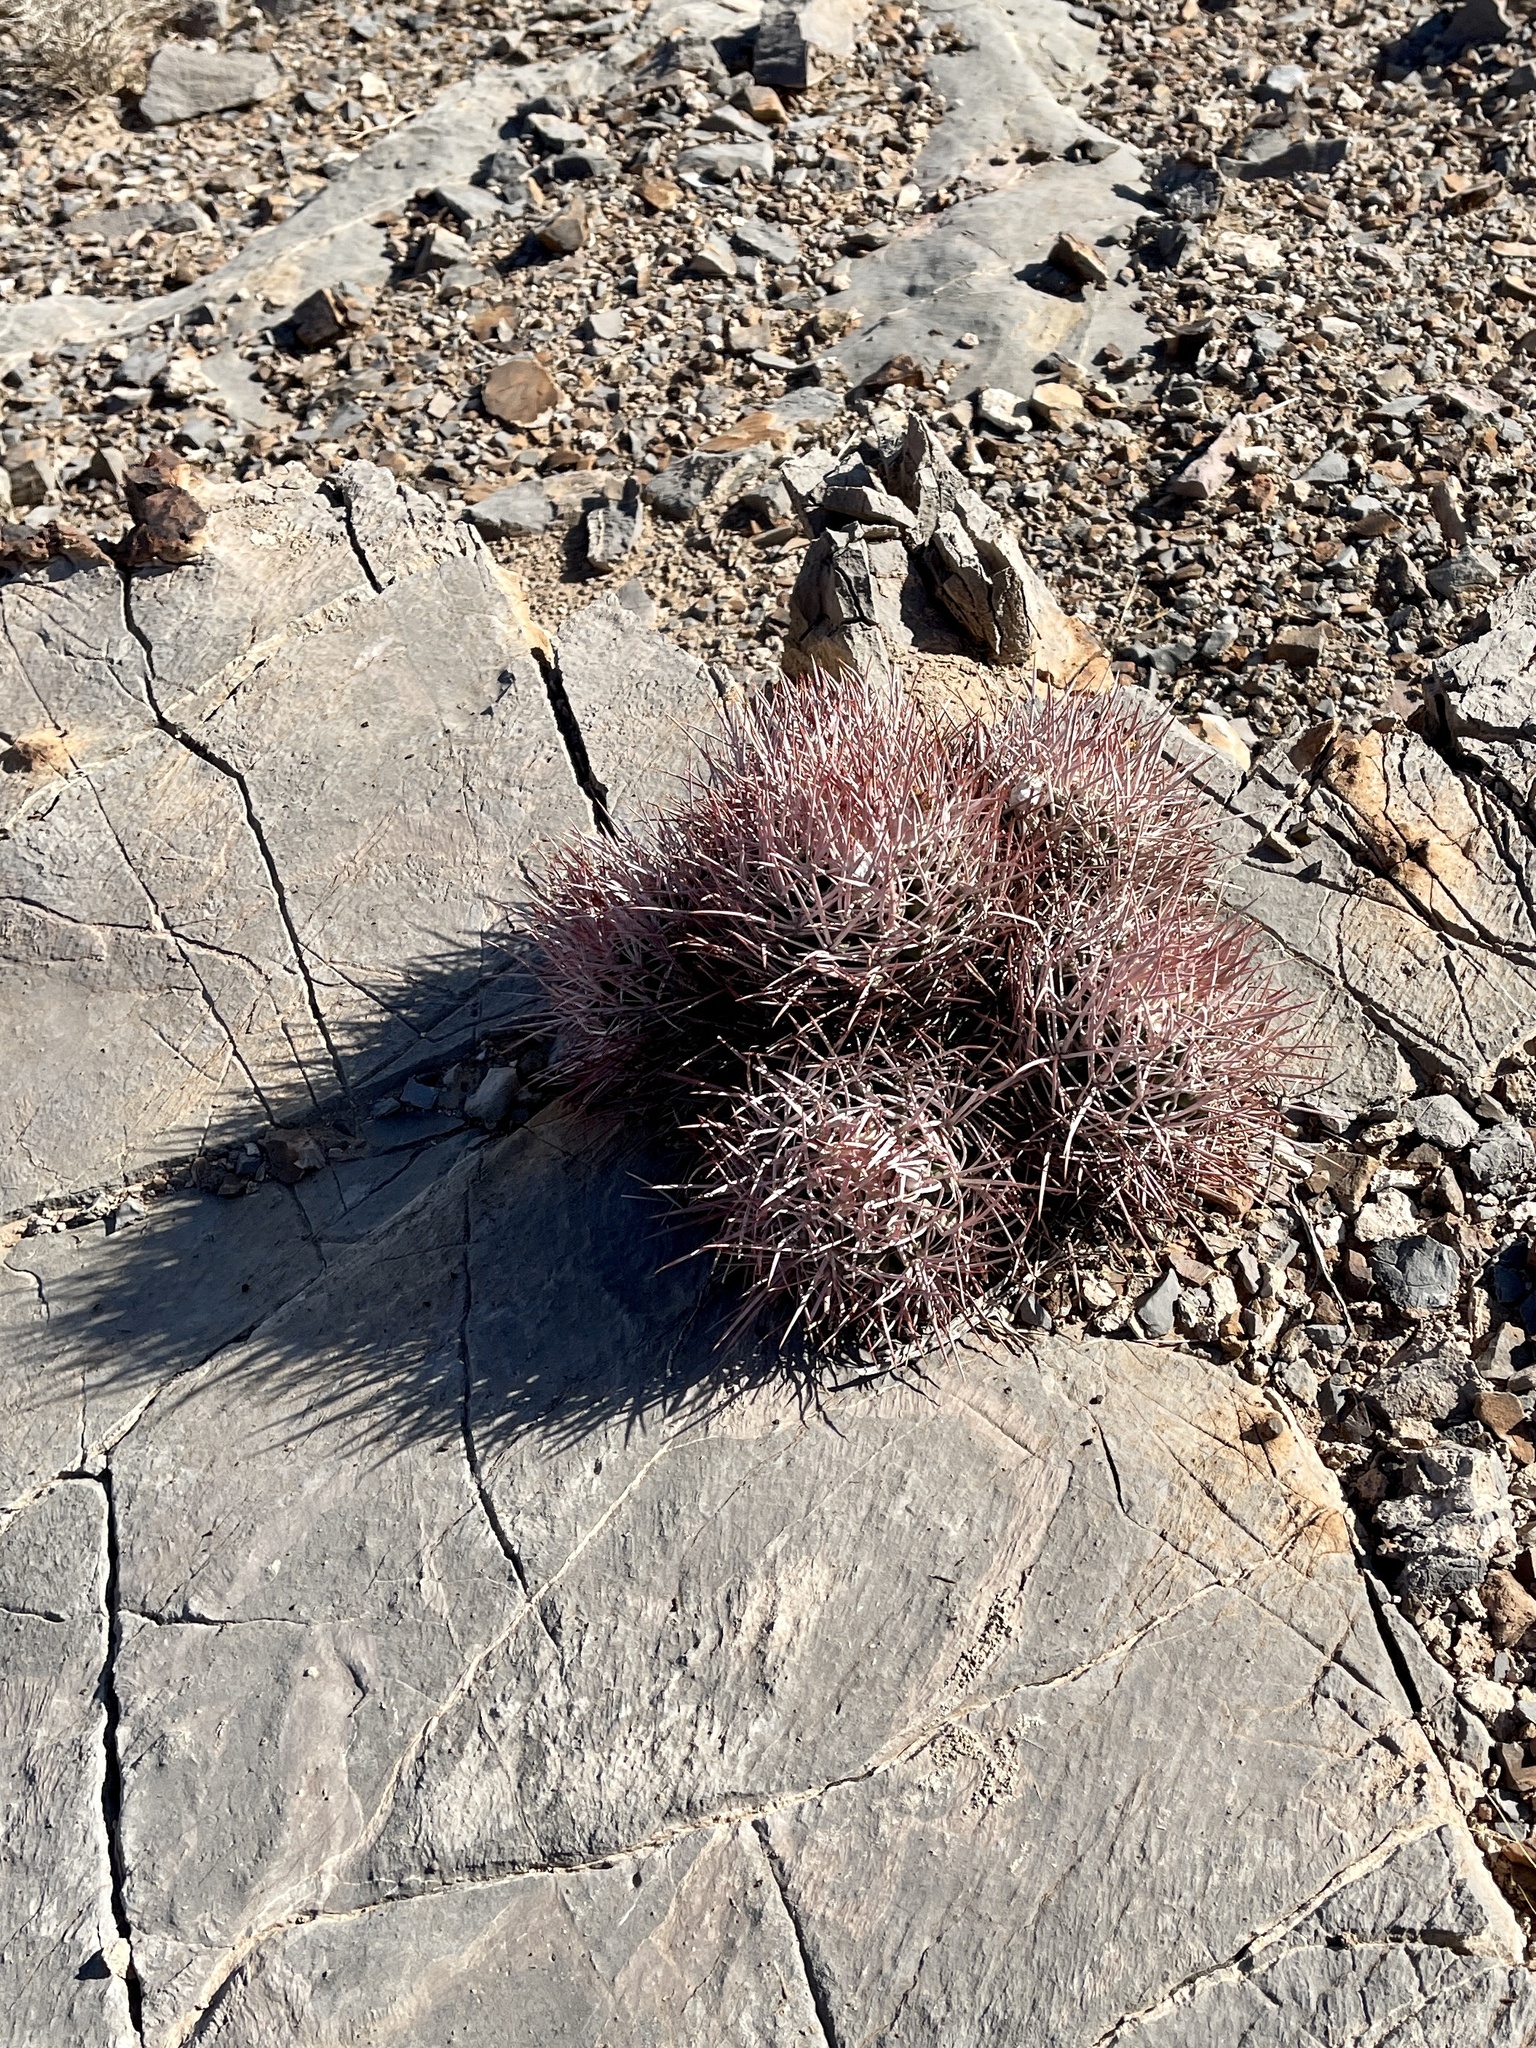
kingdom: Plantae
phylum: Tracheophyta
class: Magnoliopsida
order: Caryophyllales
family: Cactaceae
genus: Echinocactus
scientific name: Echinocactus polycephalus
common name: Cottontop cactus
